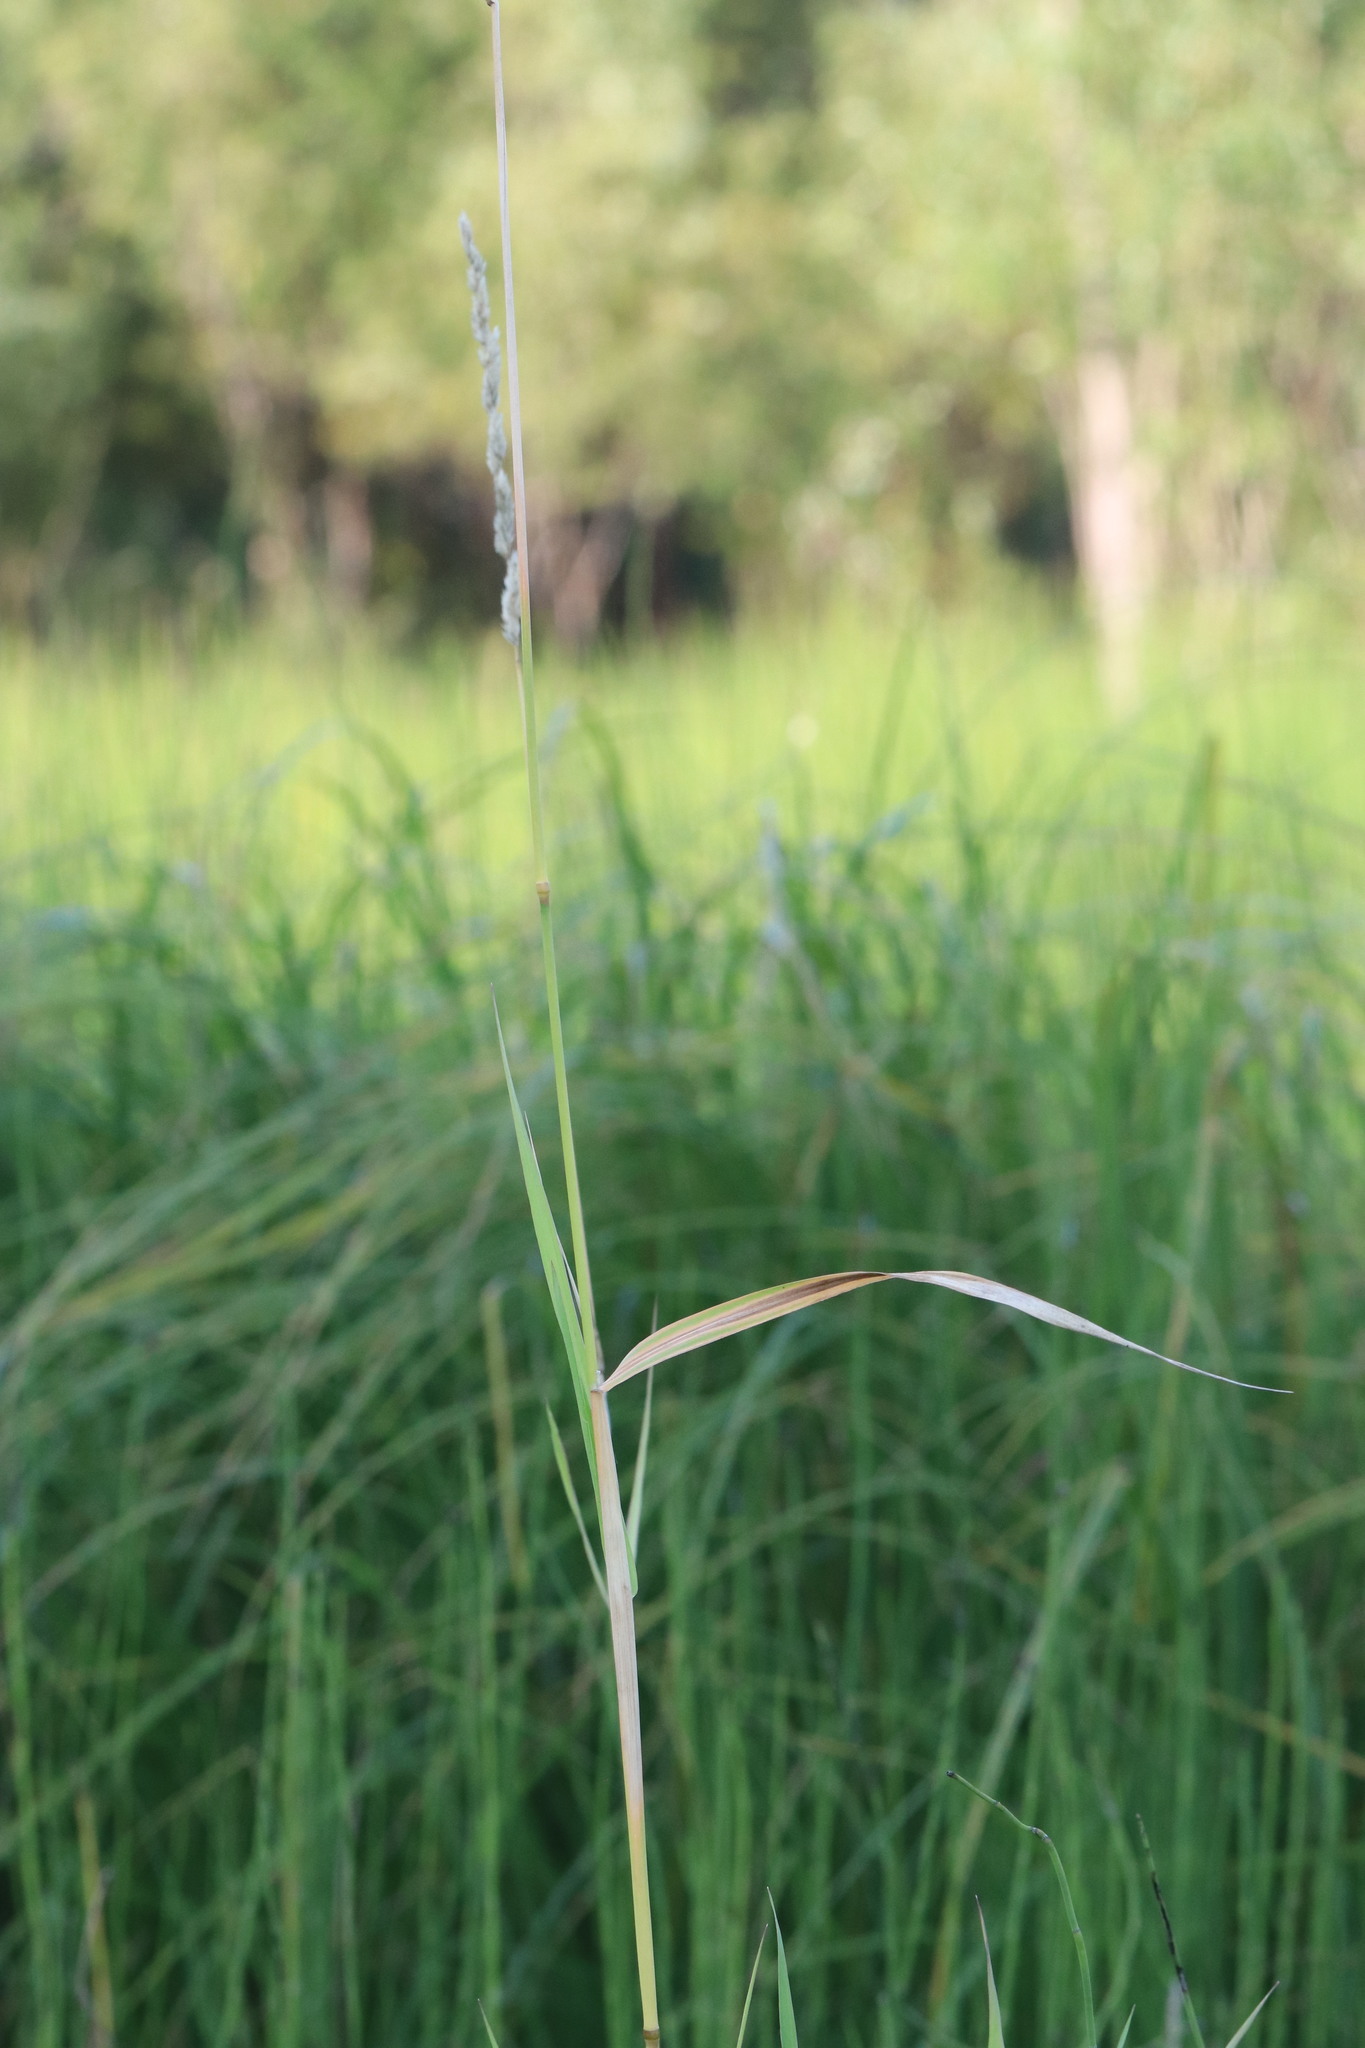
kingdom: Plantae
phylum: Tracheophyta
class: Liliopsida
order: Poales
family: Poaceae
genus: Phalaris
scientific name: Phalaris arundinacea
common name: Reed canary-grass
